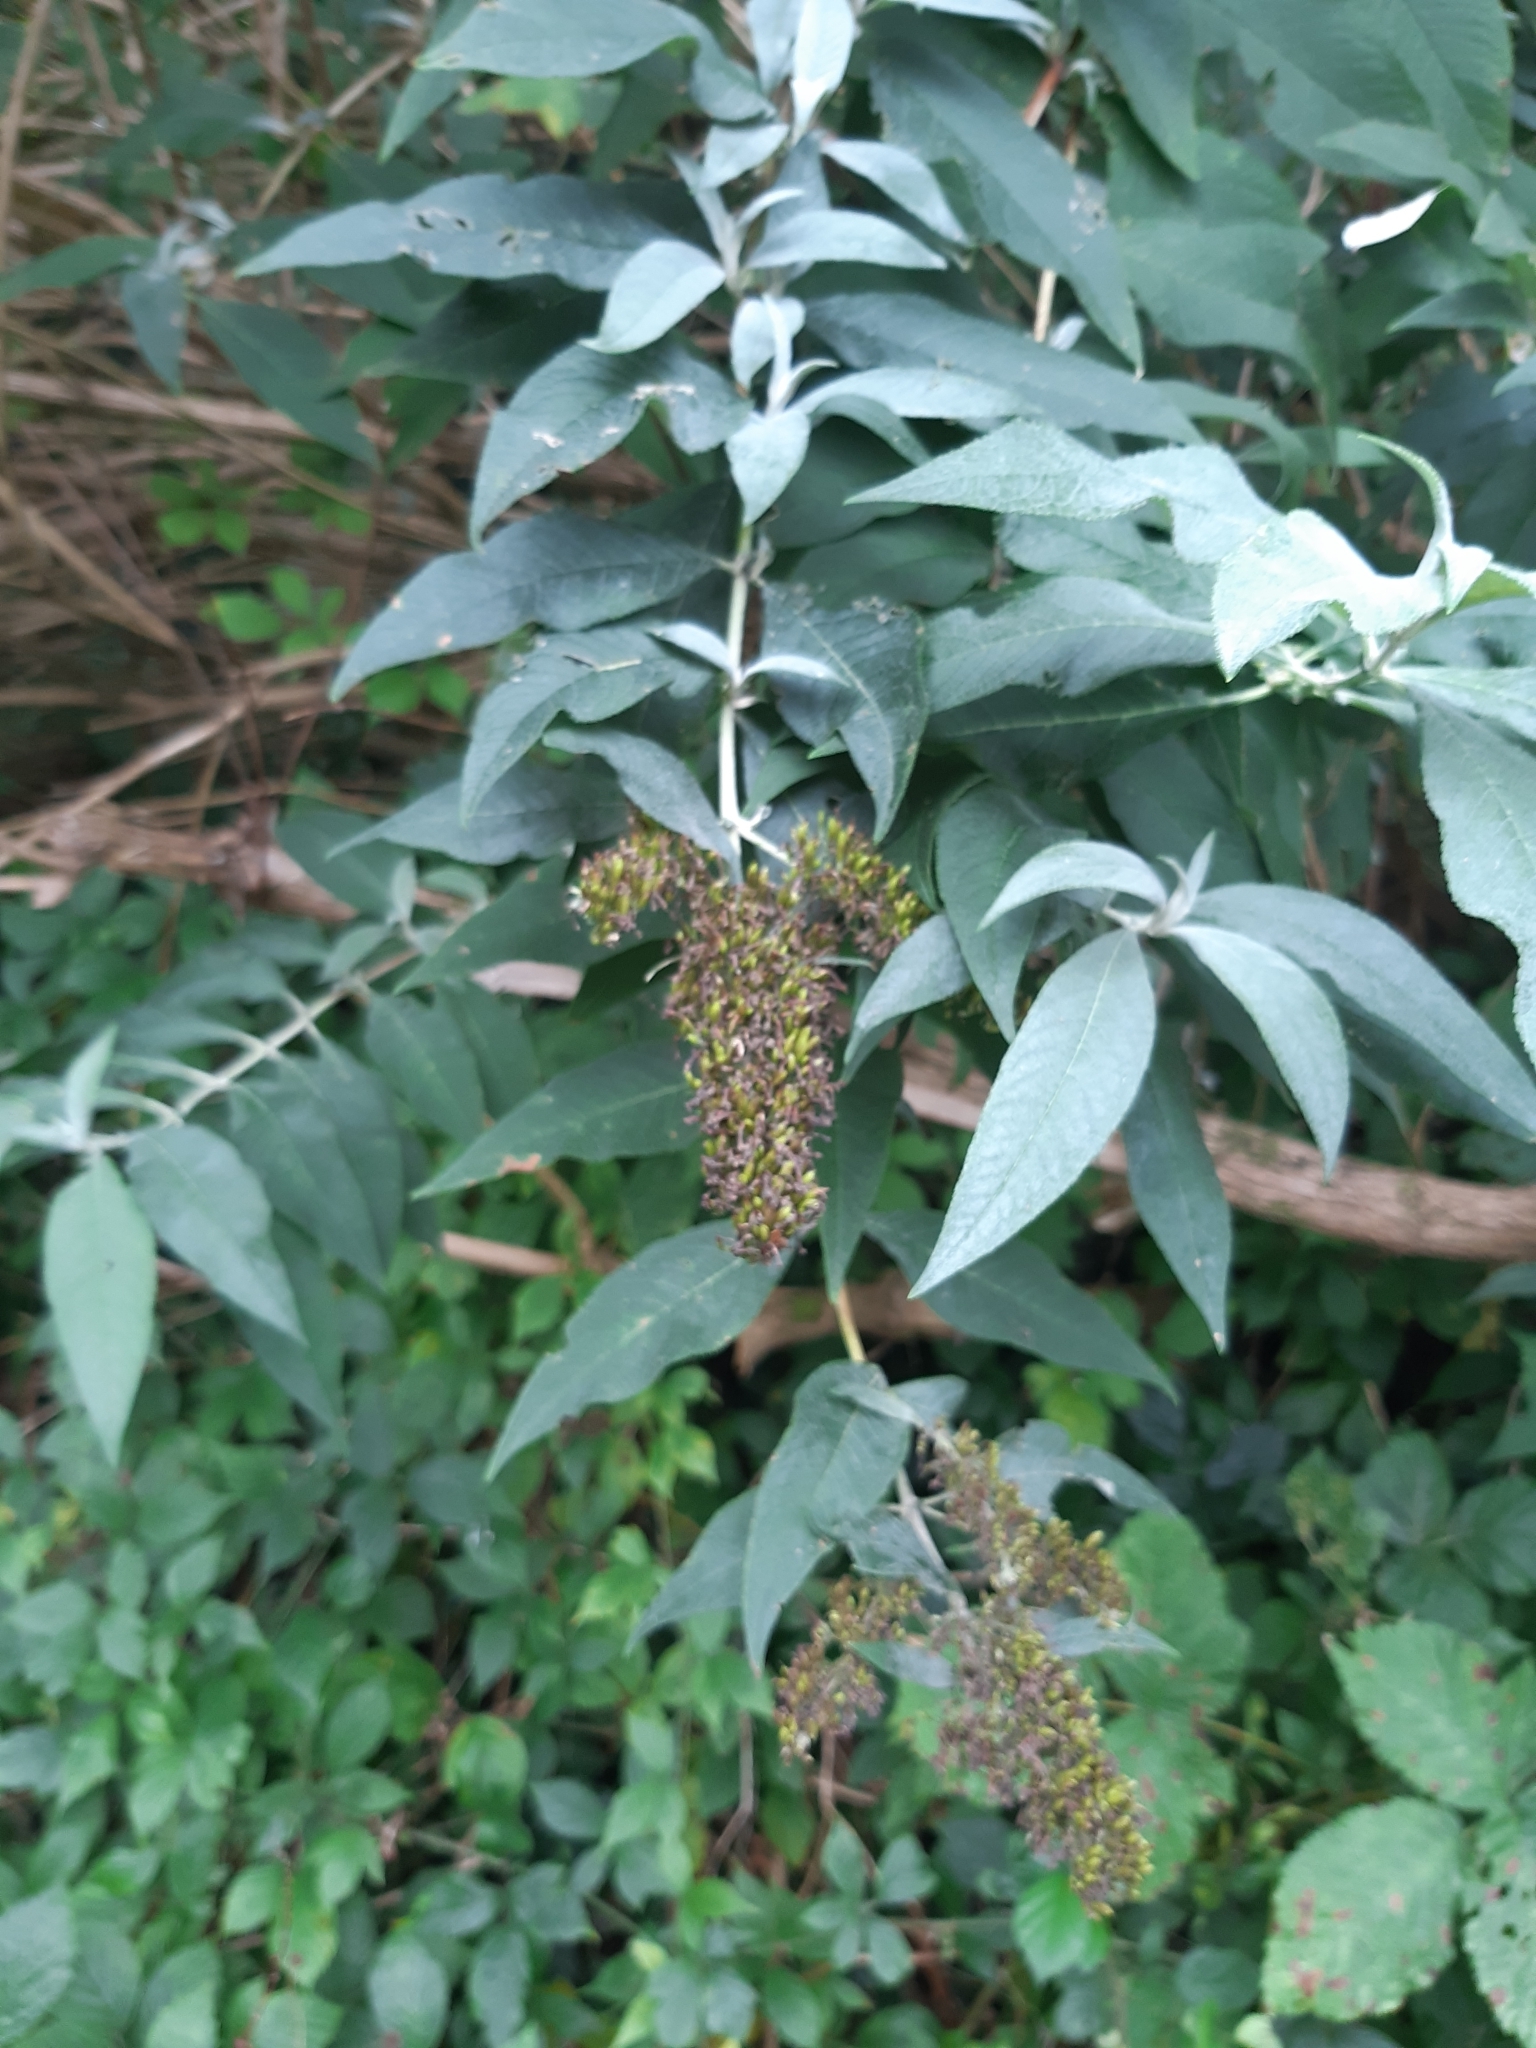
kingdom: Plantae
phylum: Tracheophyta
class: Magnoliopsida
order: Lamiales
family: Scrophulariaceae
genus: Buddleja
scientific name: Buddleja davidii
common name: Butterfly-bush
